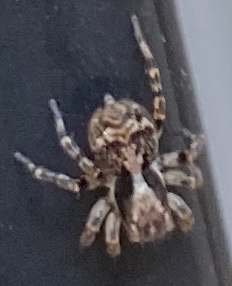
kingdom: Animalia
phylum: Arthropoda
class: Arachnida
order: Araneae
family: Salticidae
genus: Naphrys
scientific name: Naphrys pulex
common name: Flea jumping spider
